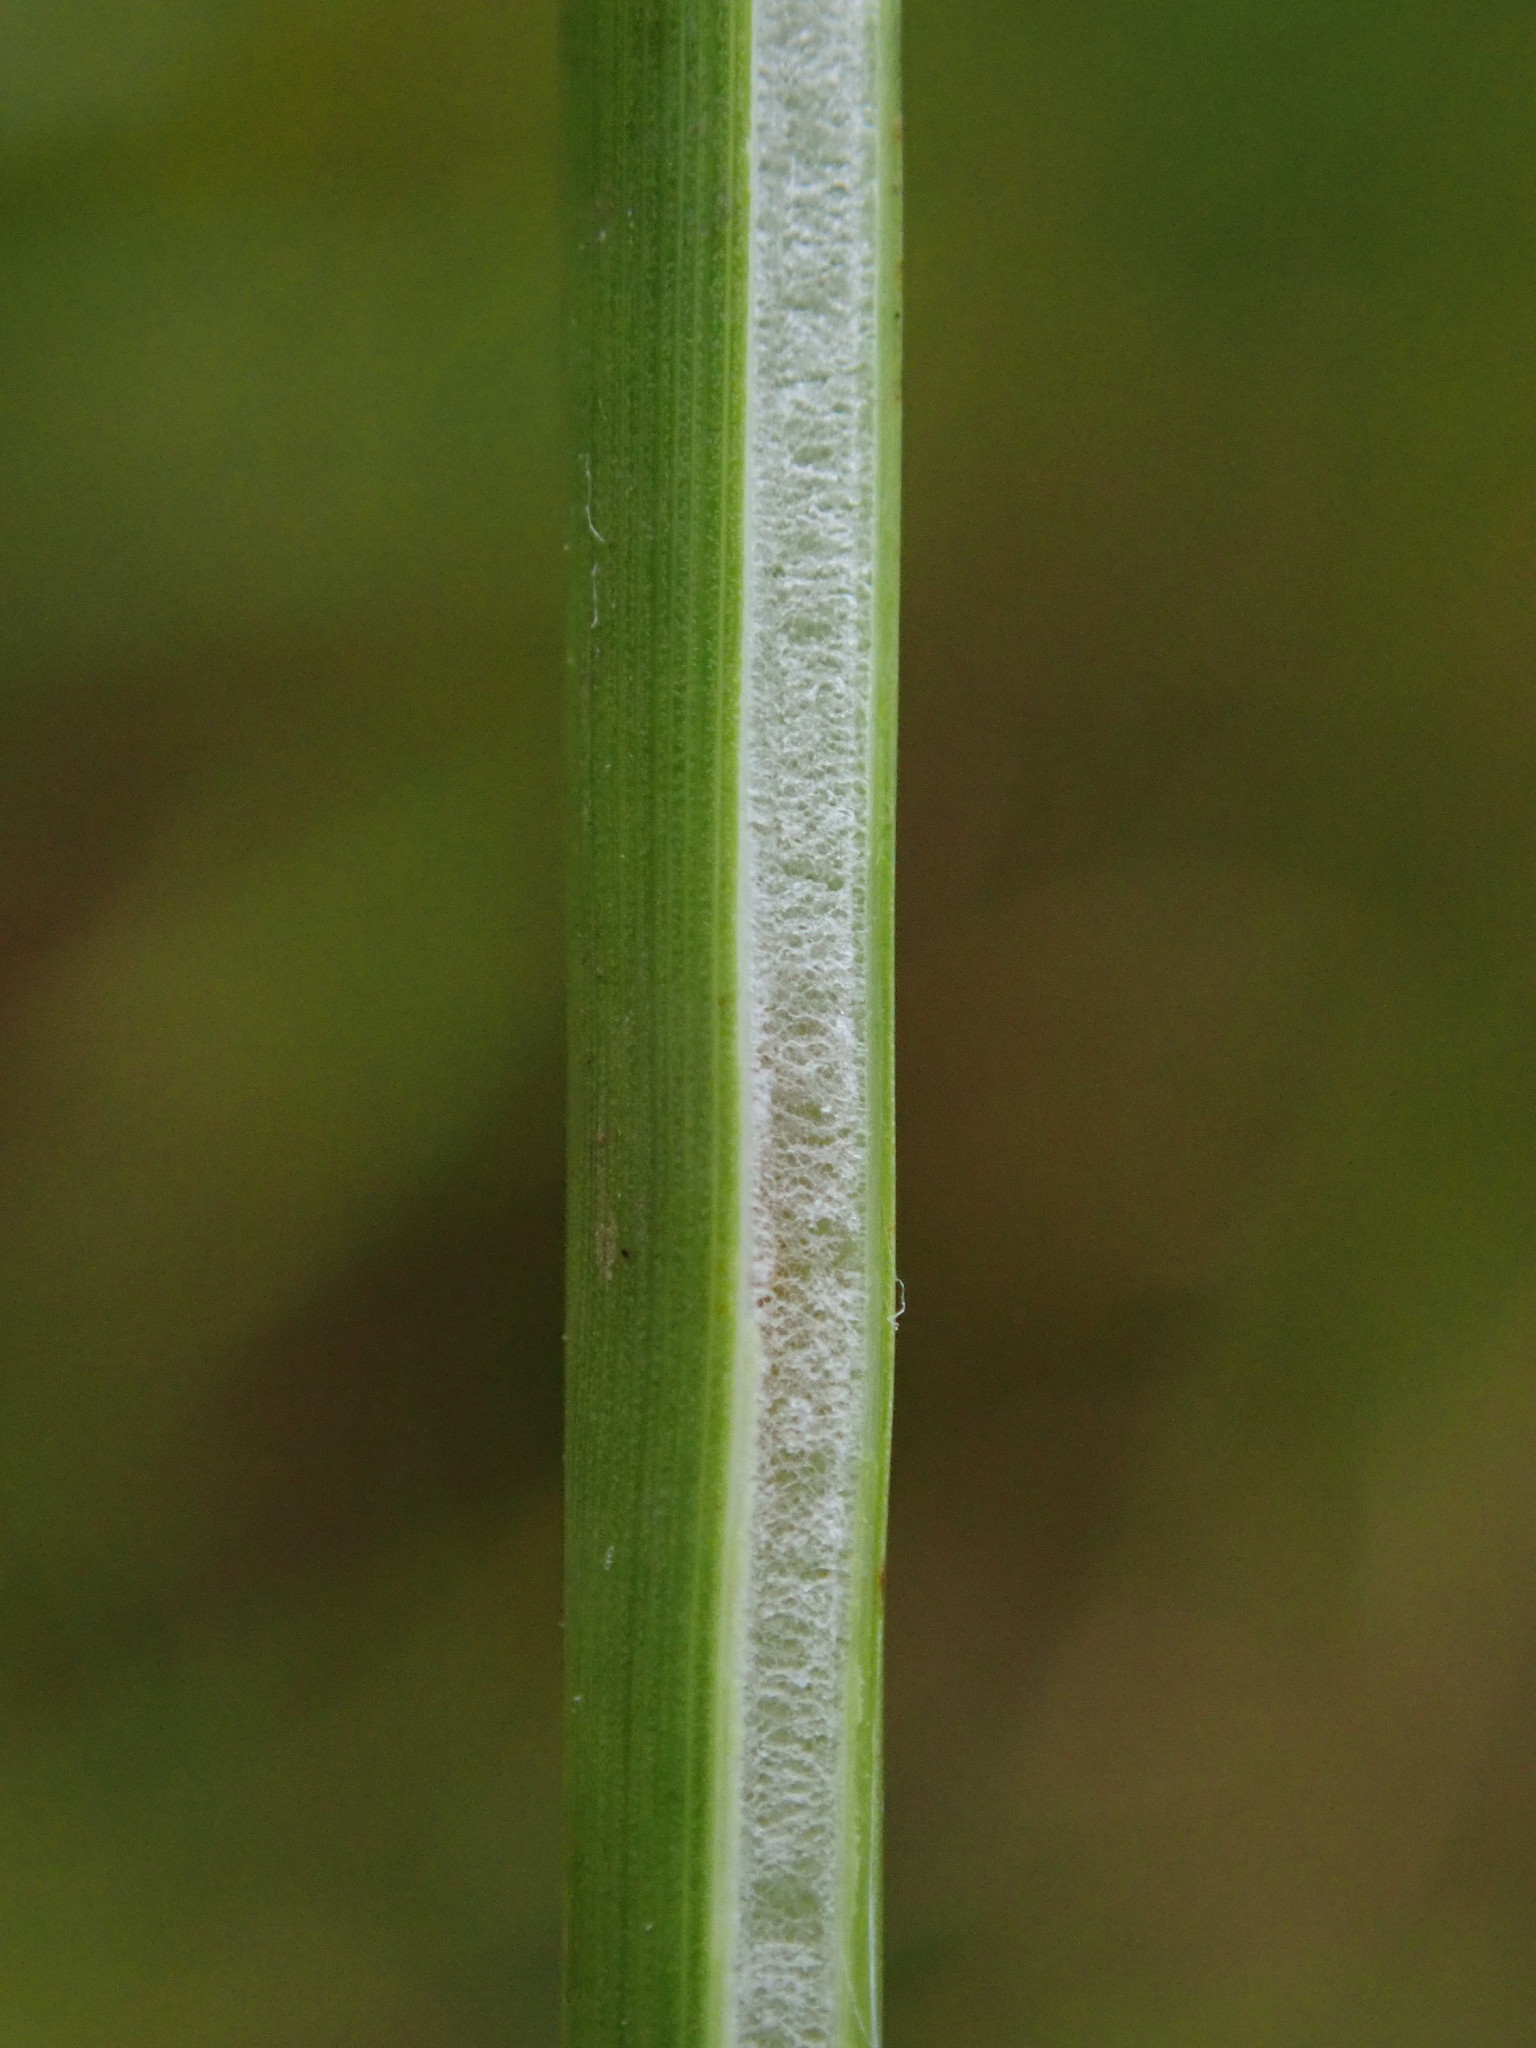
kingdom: Plantae
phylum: Tracheophyta
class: Liliopsida
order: Poales
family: Juncaceae
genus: Juncus
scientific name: Juncus effusus
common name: Soft rush
